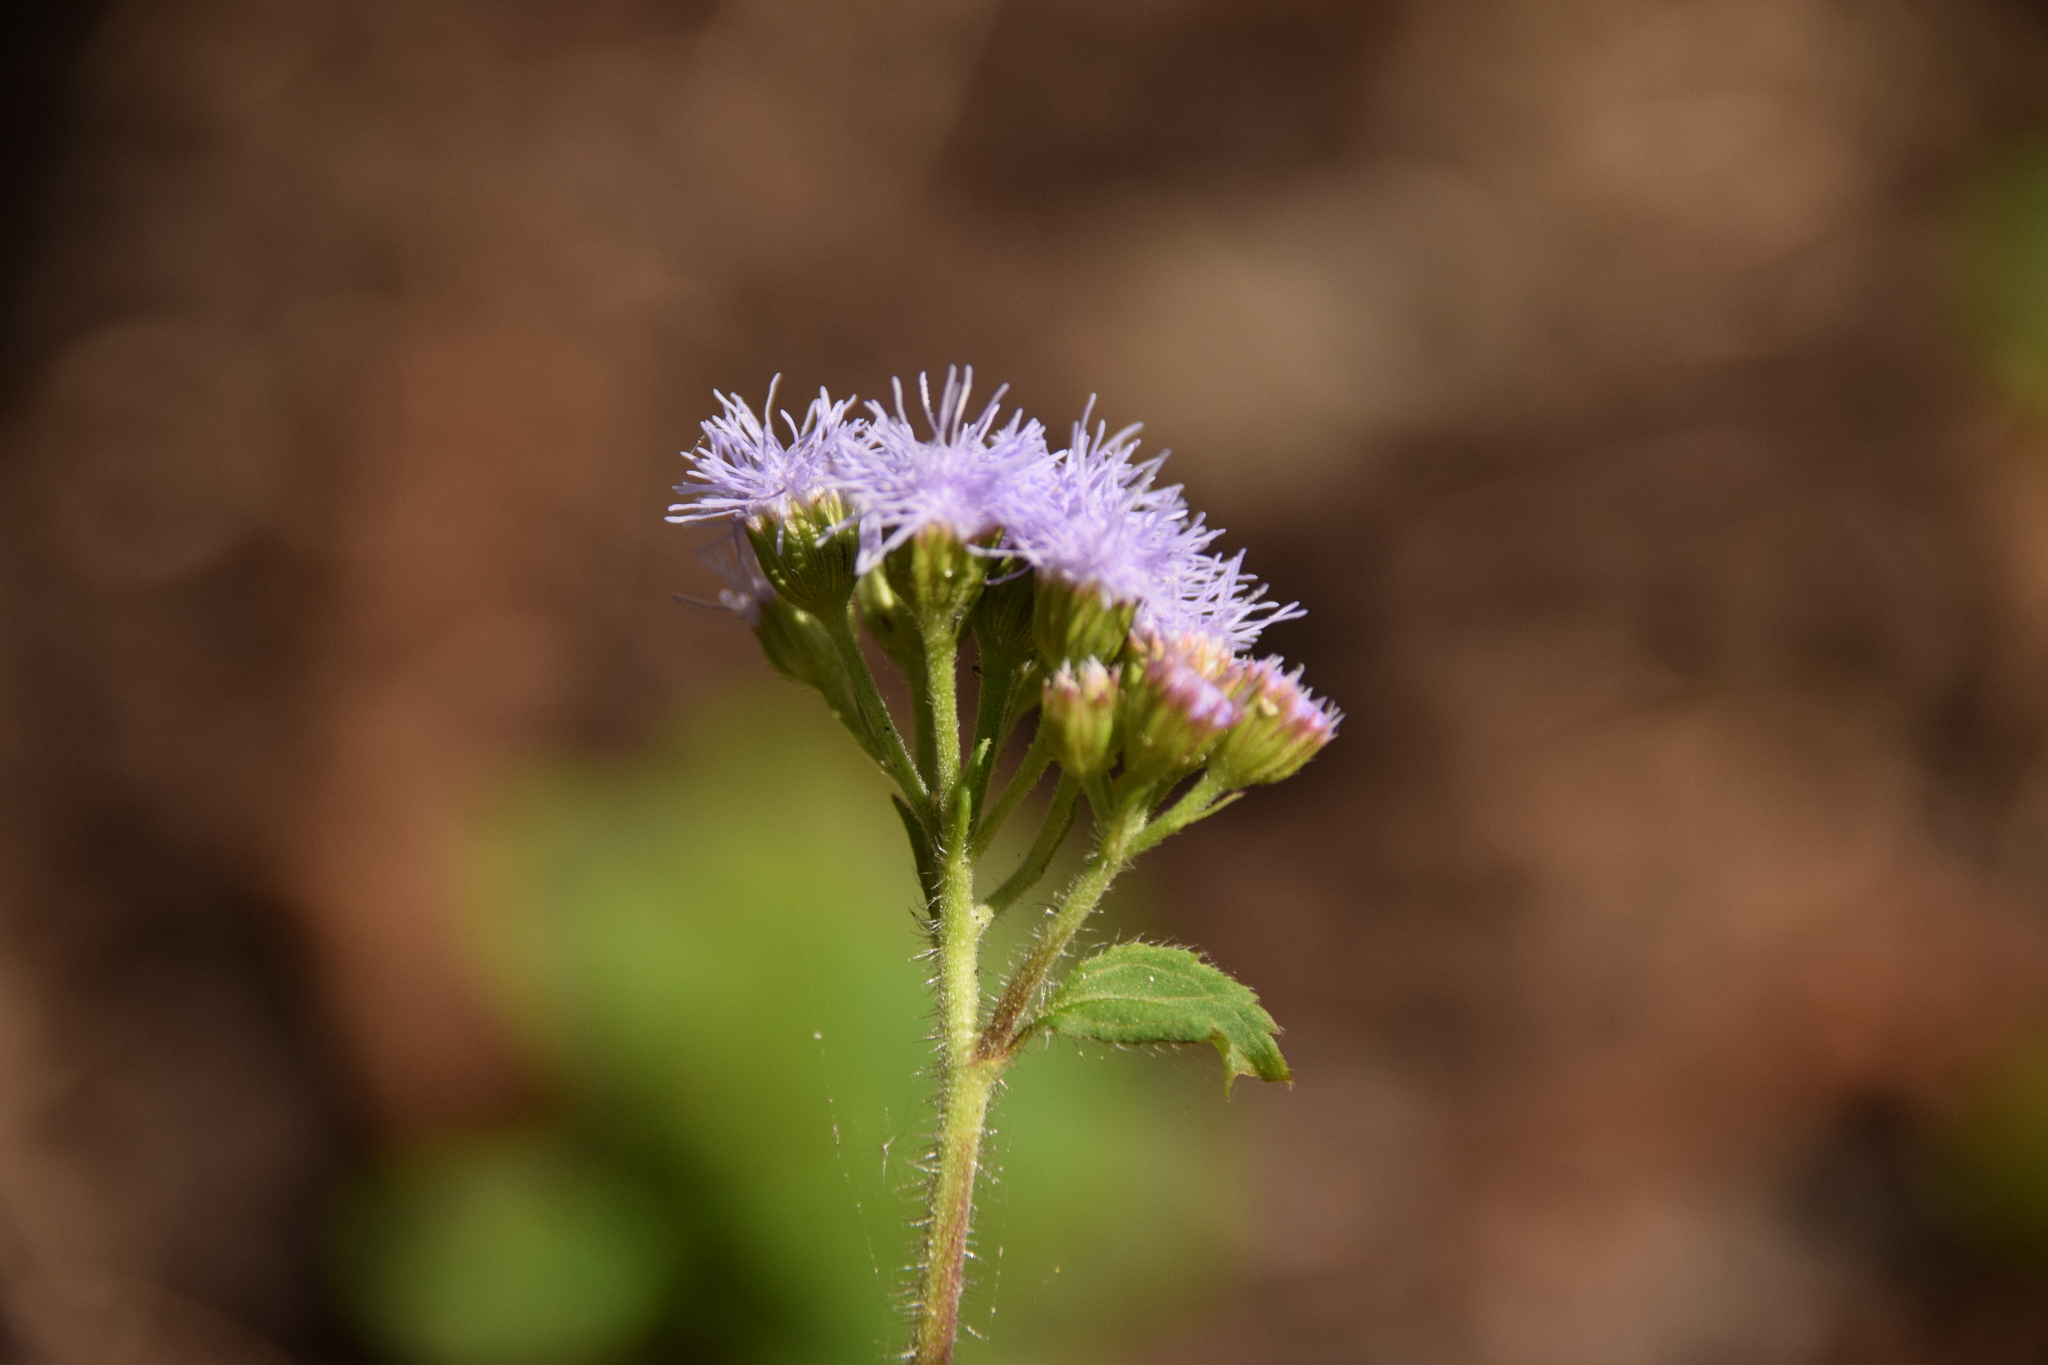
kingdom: Plantae
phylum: Tracheophyta
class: Magnoliopsida
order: Asterales
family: Asteraceae
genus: Ageratum
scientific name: Ageratum conyzoides
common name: Tropical whiteweed
